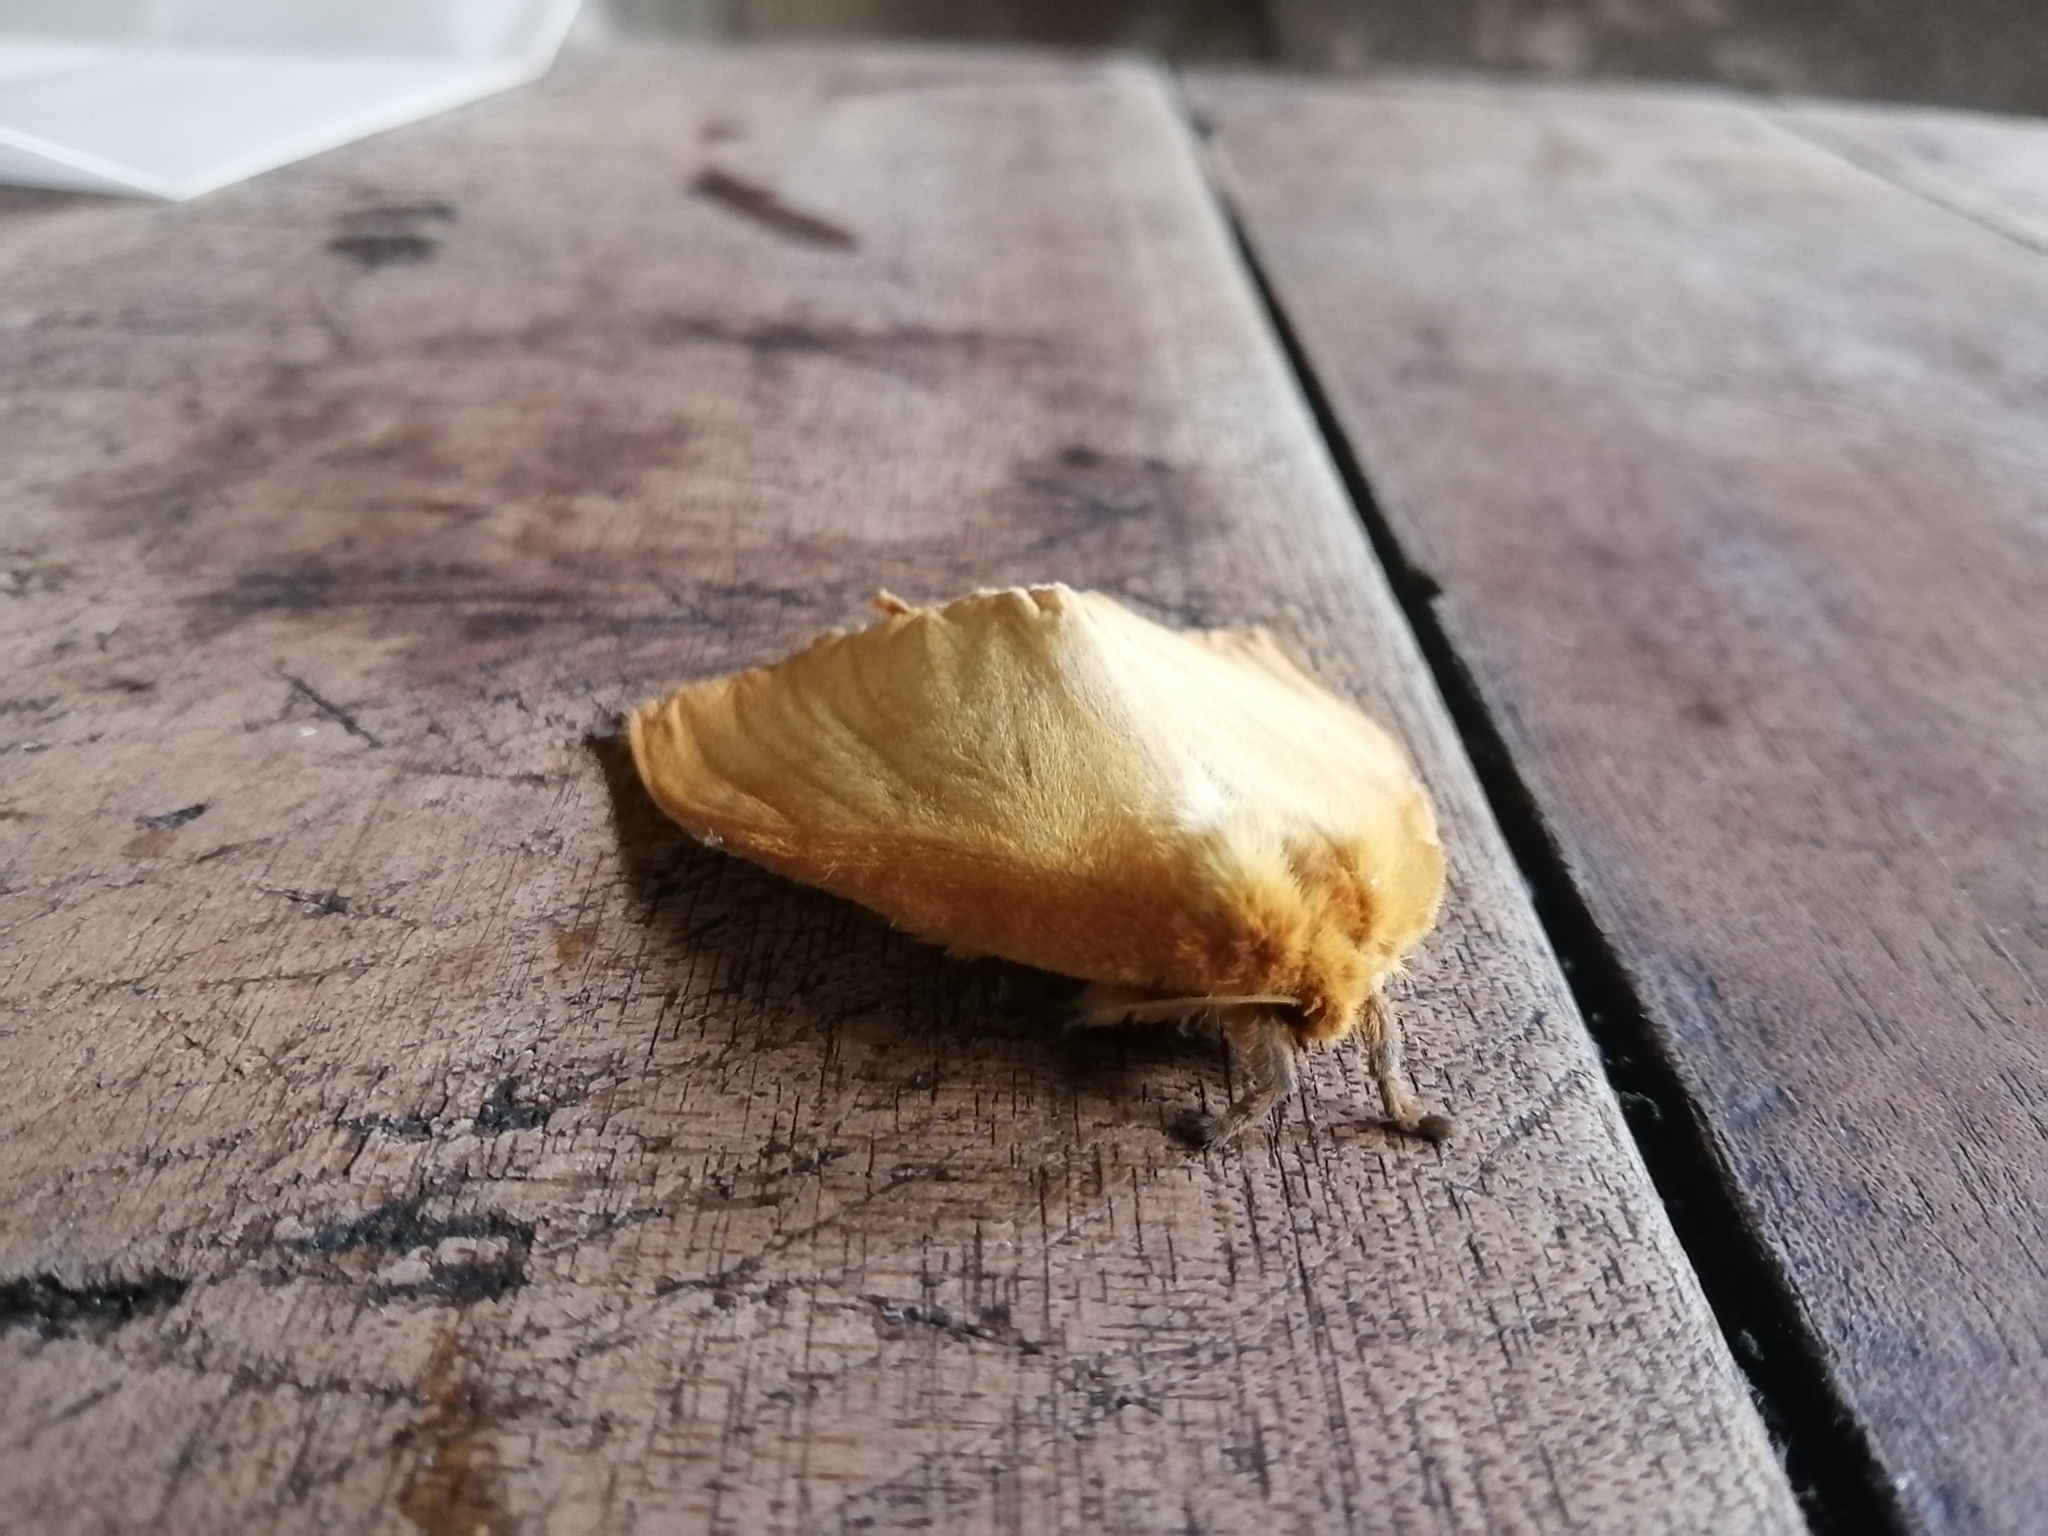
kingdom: Animalia
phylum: Arthropoda
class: Insecta
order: Lepidoptera
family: Saturniidae
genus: Periphoba
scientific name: Periphoba unicolor
